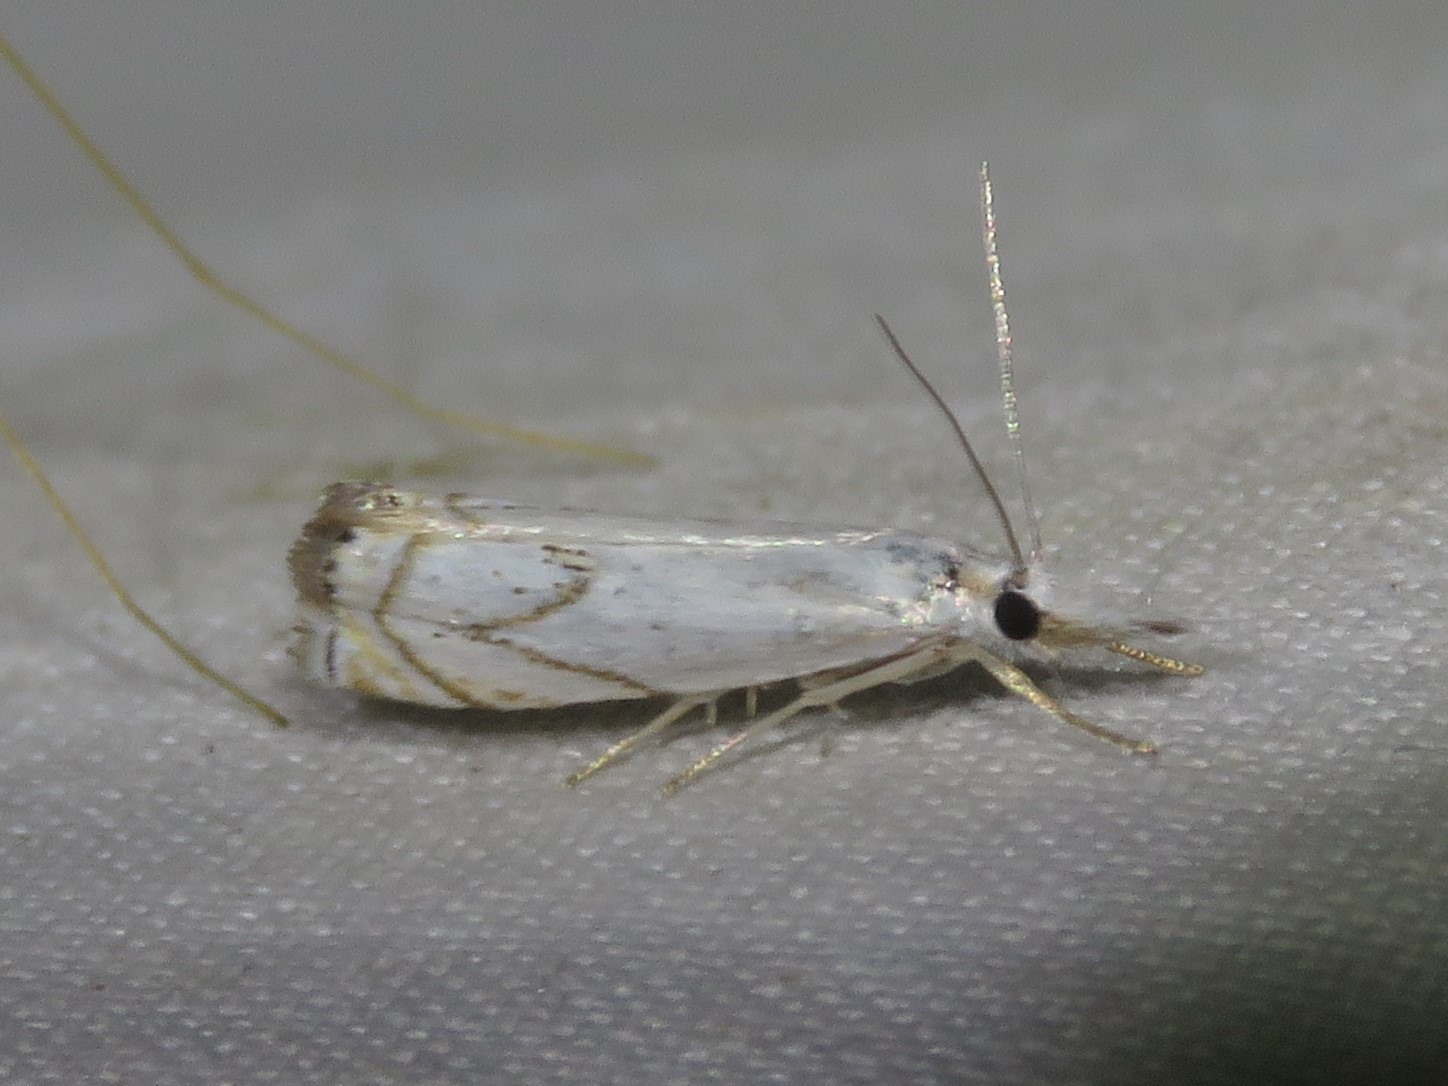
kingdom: Animalia
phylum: Arthropoda
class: Insecta
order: Lepidoptera
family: Crambidae
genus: Crambus
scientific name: Crambus albellus
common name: Small white grass-veneer
